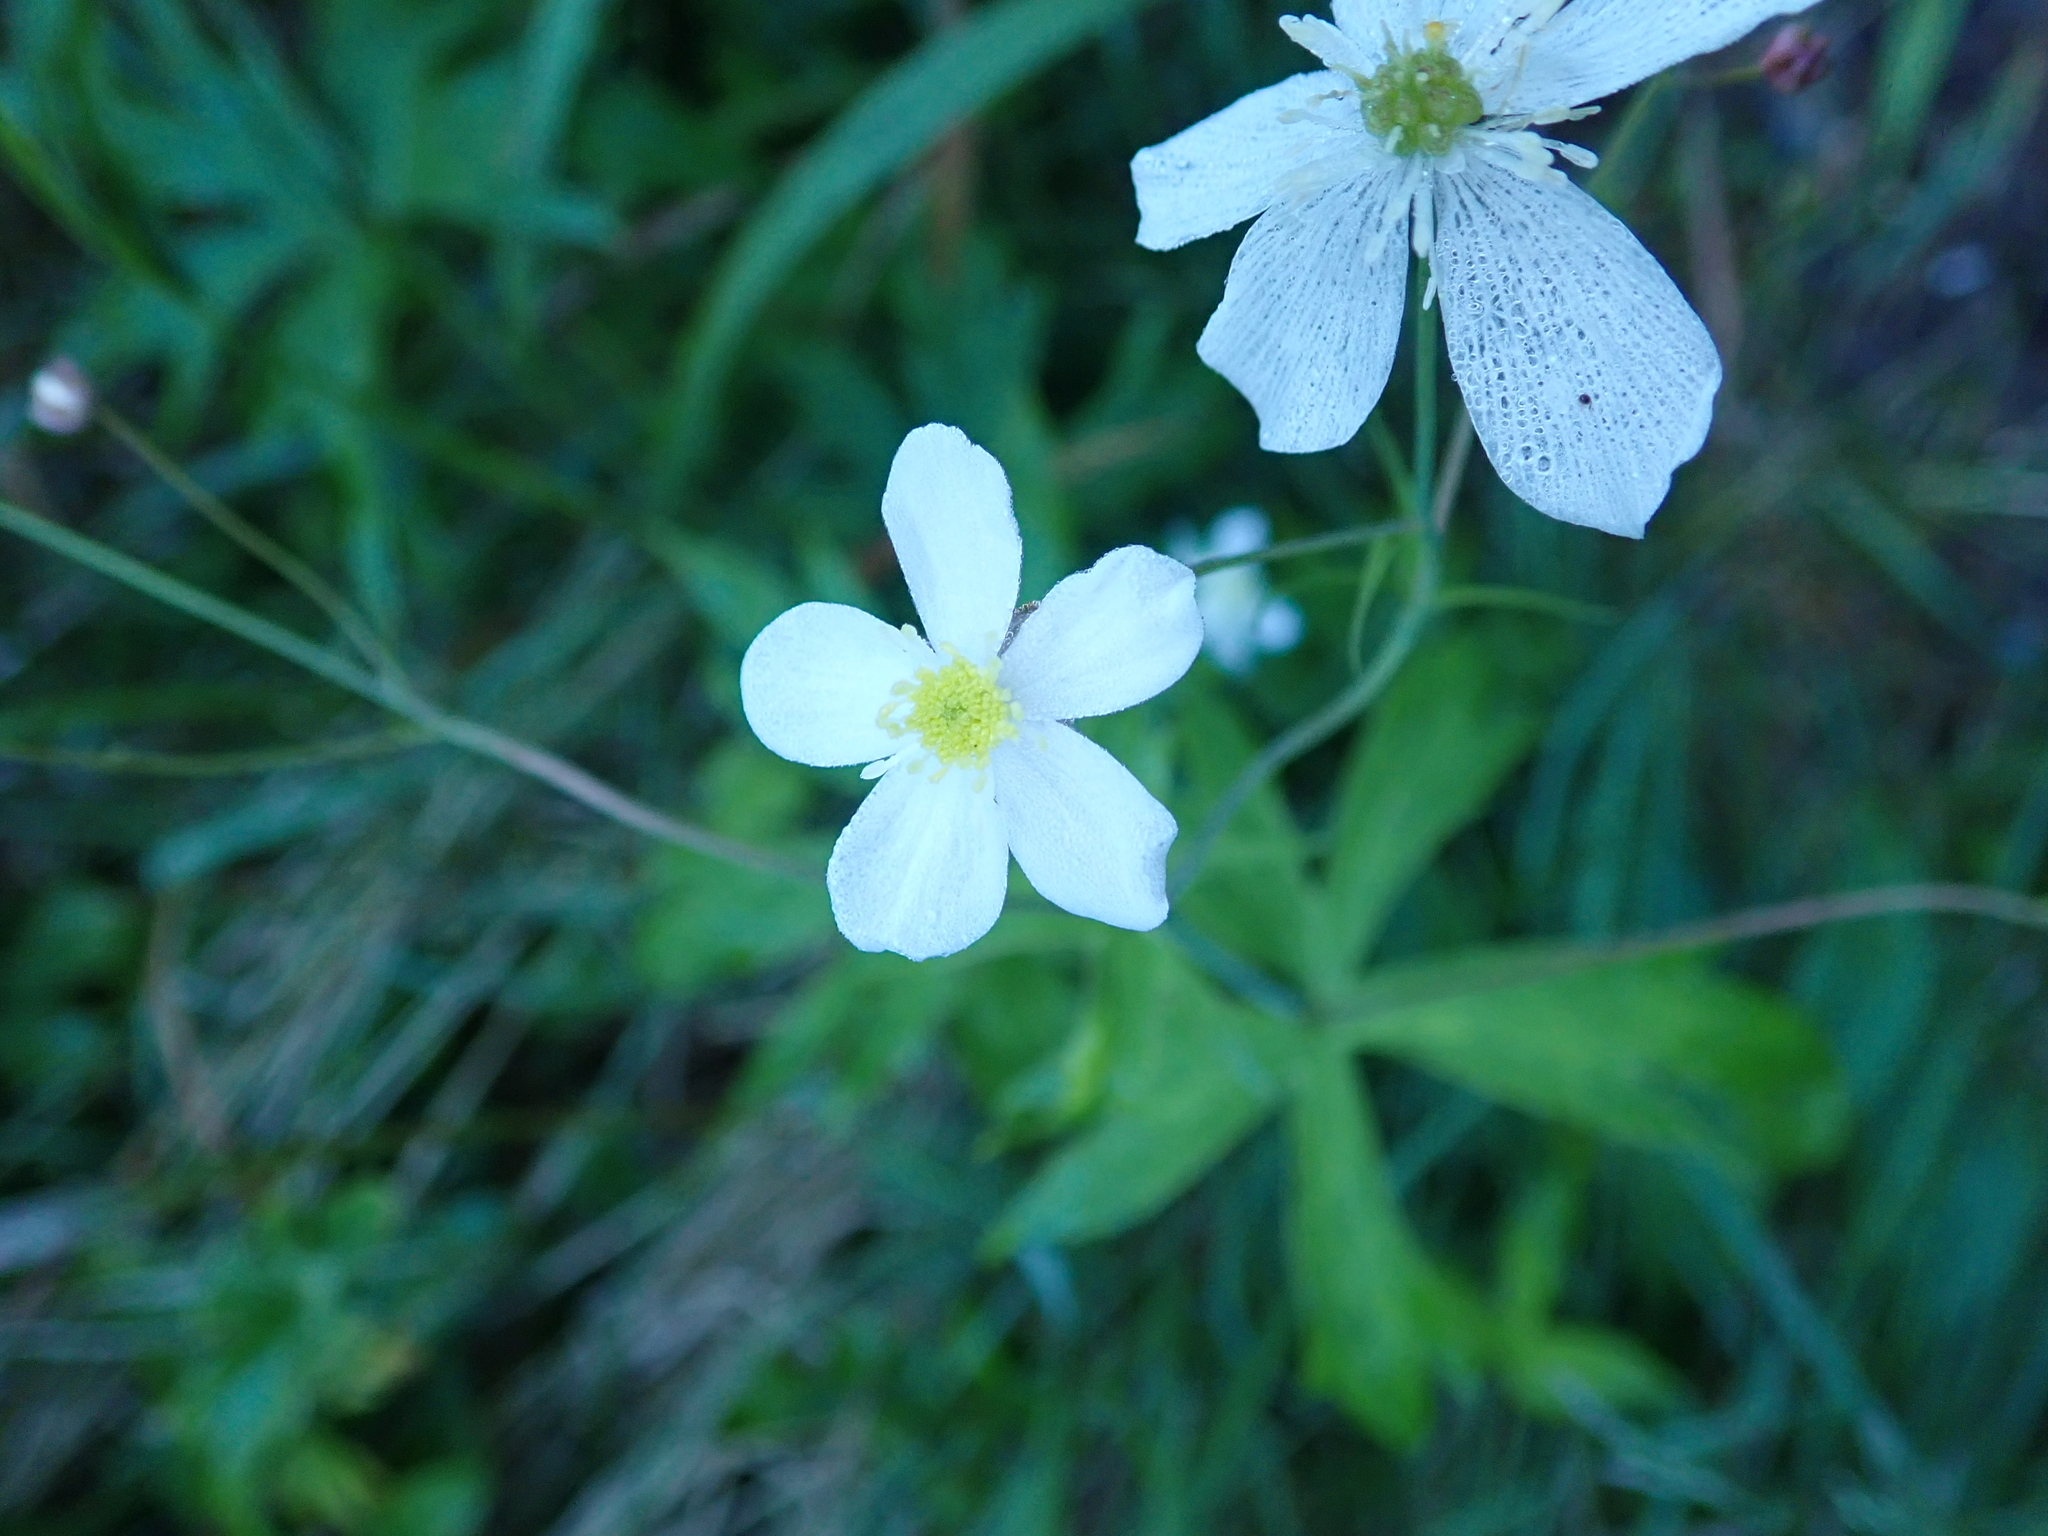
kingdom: Plantae
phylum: Tracheophyta
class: Magnoliopsida
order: Ranunculales
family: Ranunculaceae
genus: Ranunculus
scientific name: Ranunculus platanifolius
